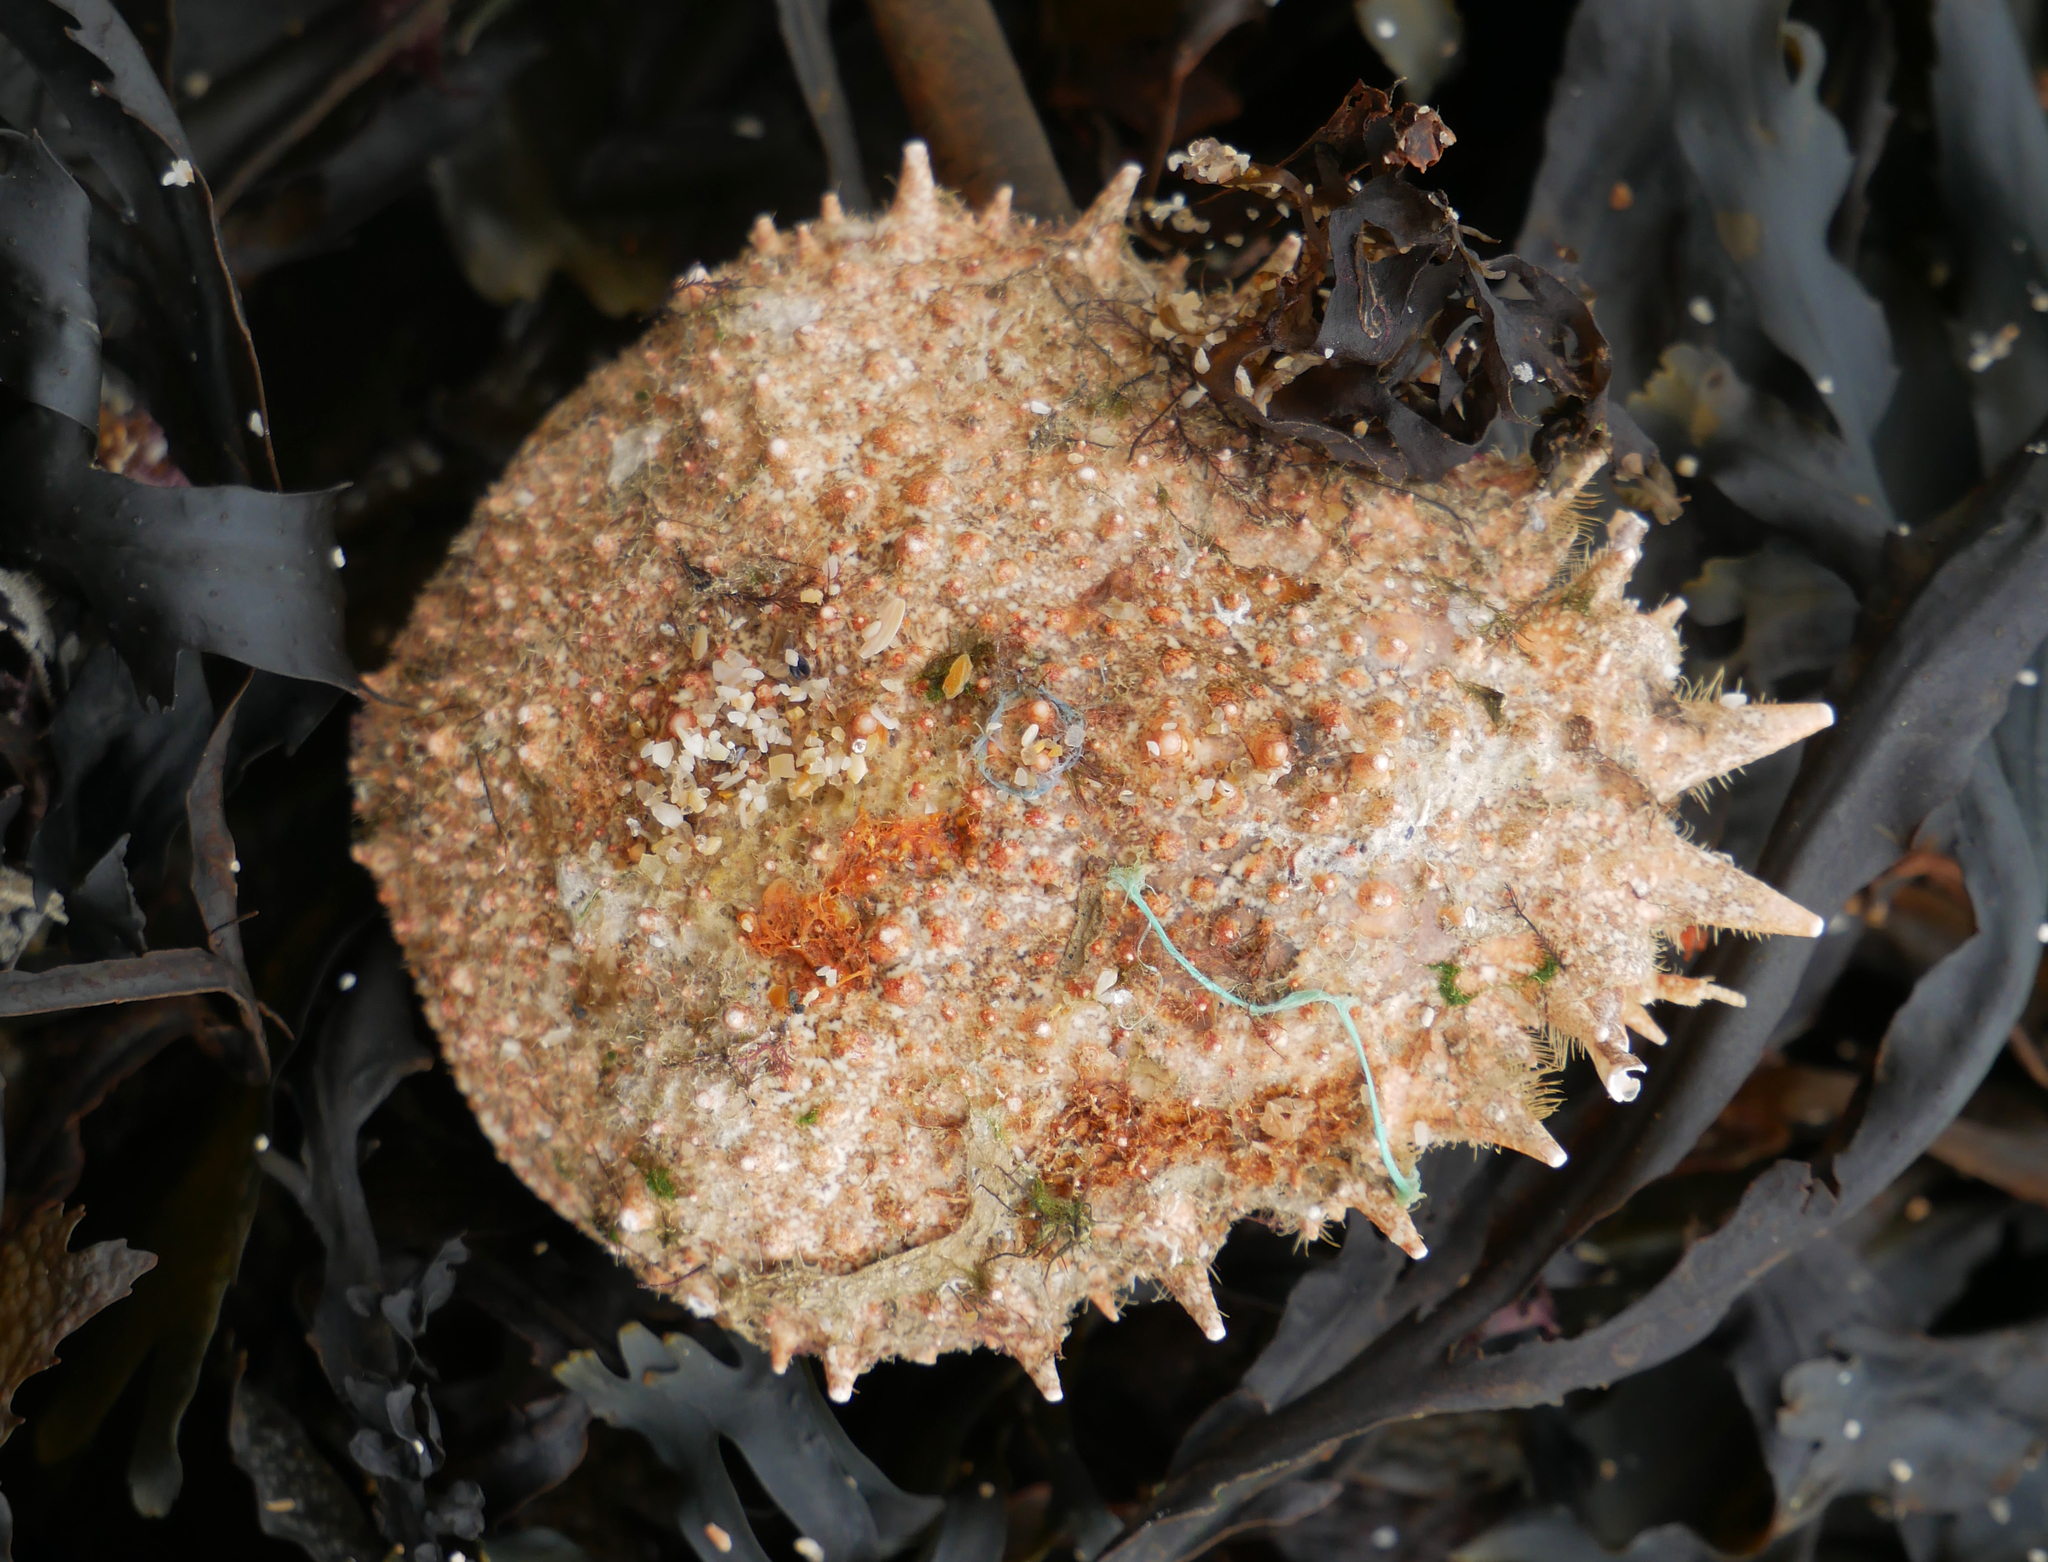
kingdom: Animalia
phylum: Arthropoda
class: Malacostraca
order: Decapoda
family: Majidae
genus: Maja
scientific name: Maja brachydactyla
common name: Common spider crab
